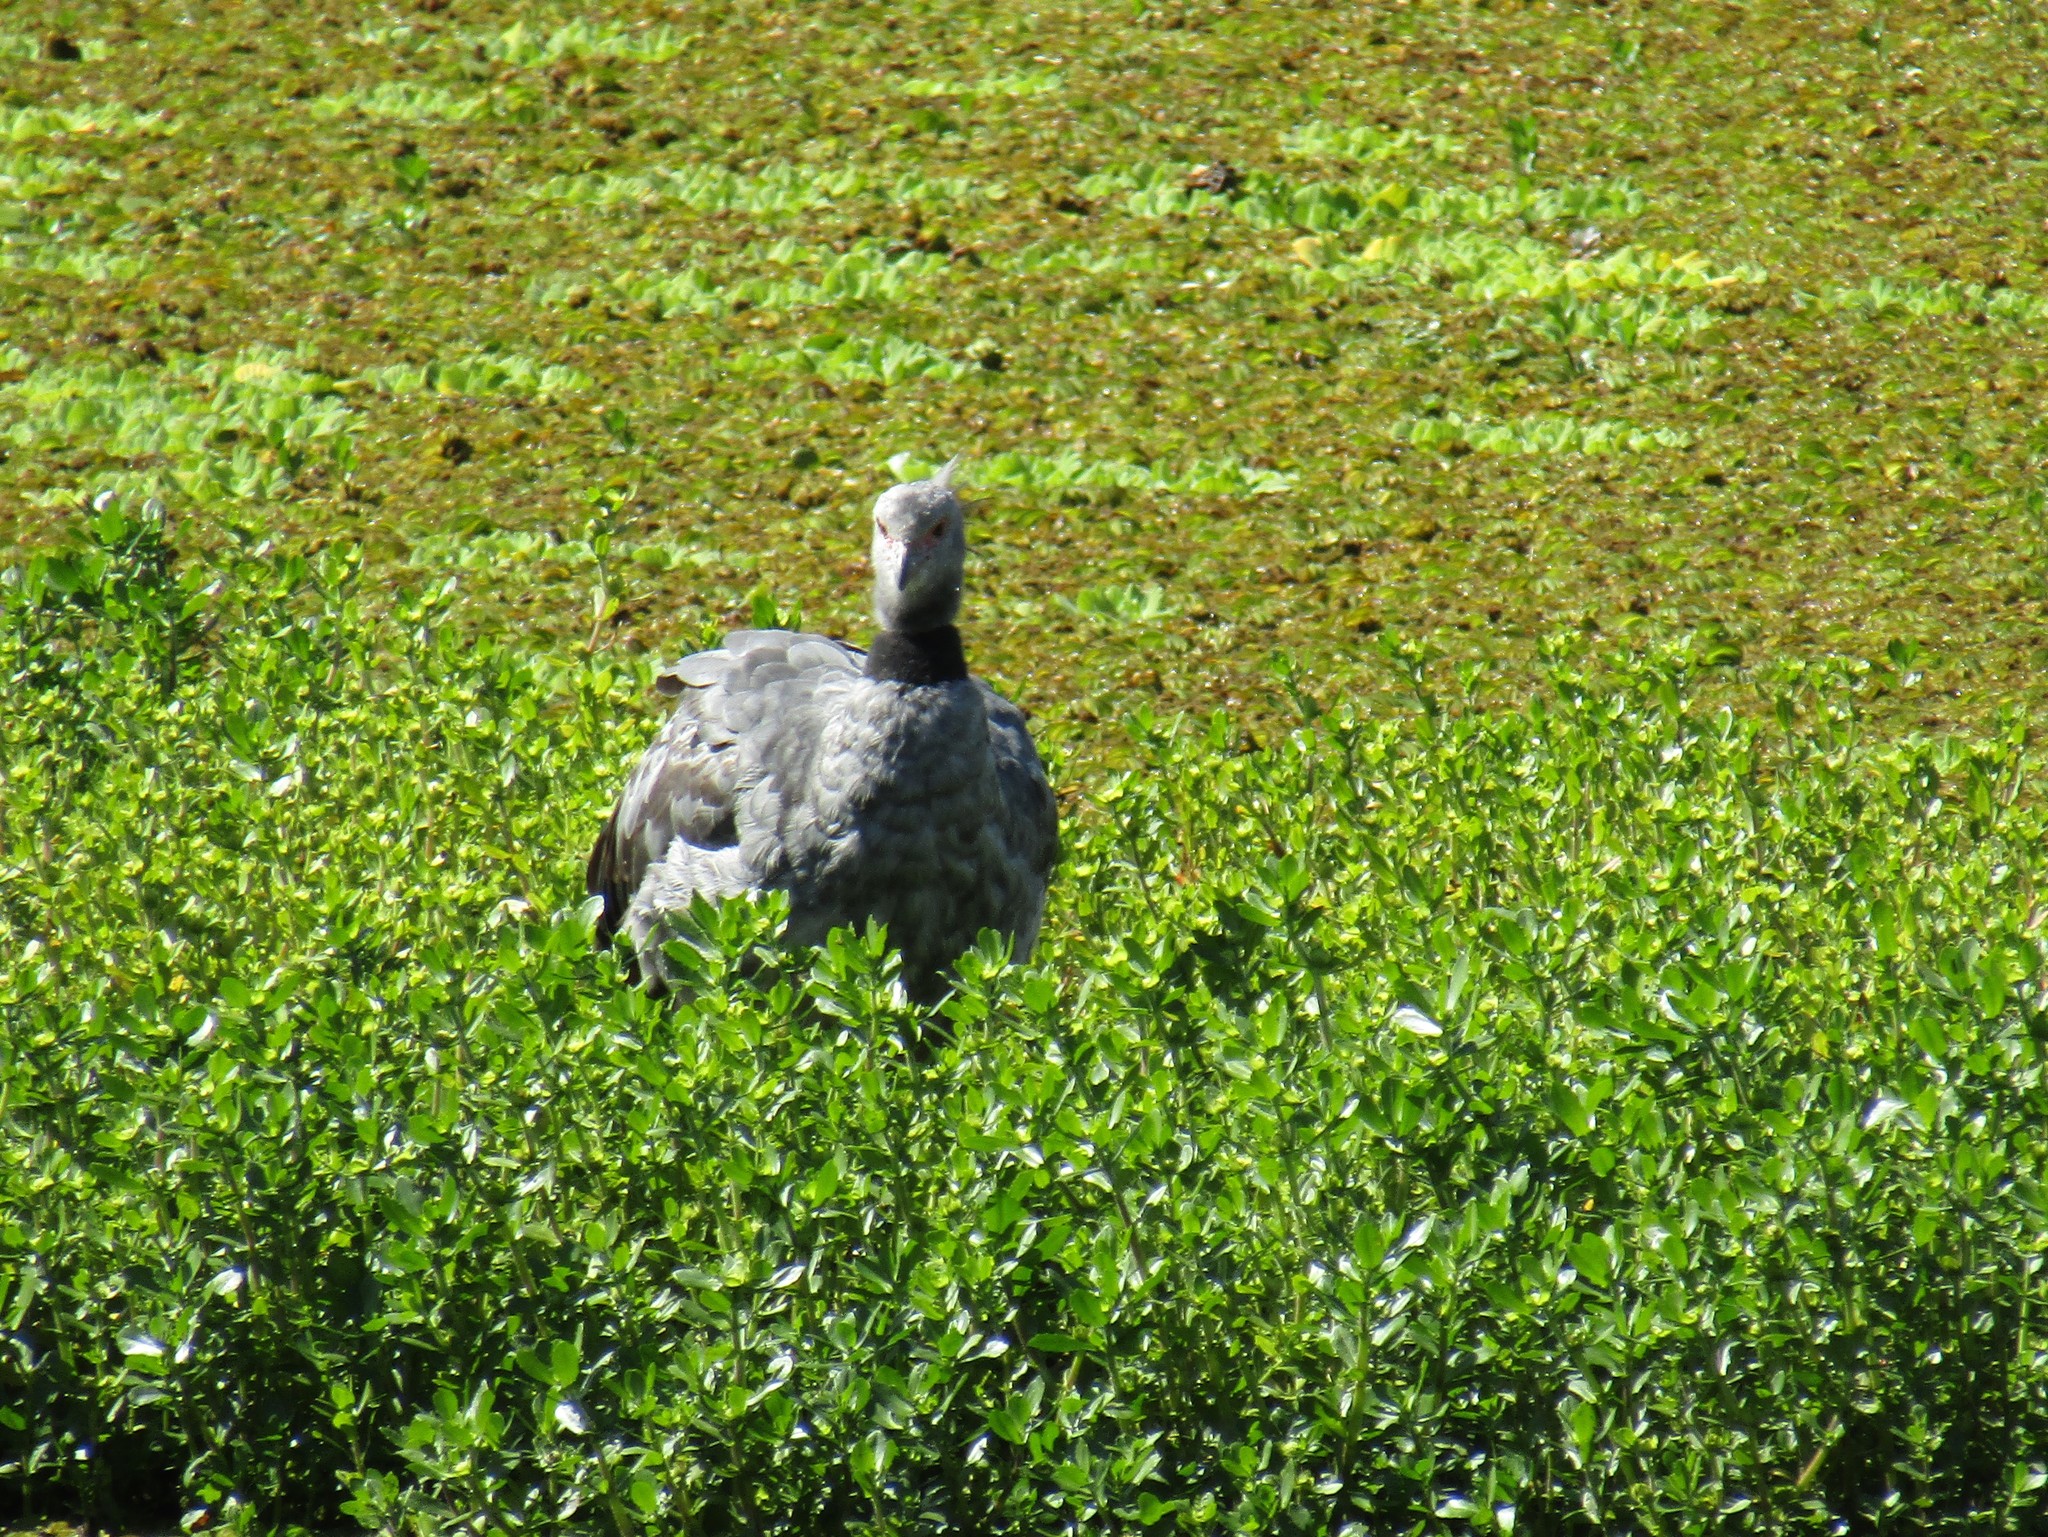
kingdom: Animalia
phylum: Chordata
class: Aves
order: Anseriformes
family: Anhimidae
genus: Chauna
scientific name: Chauna torquata
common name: Southern screamer
